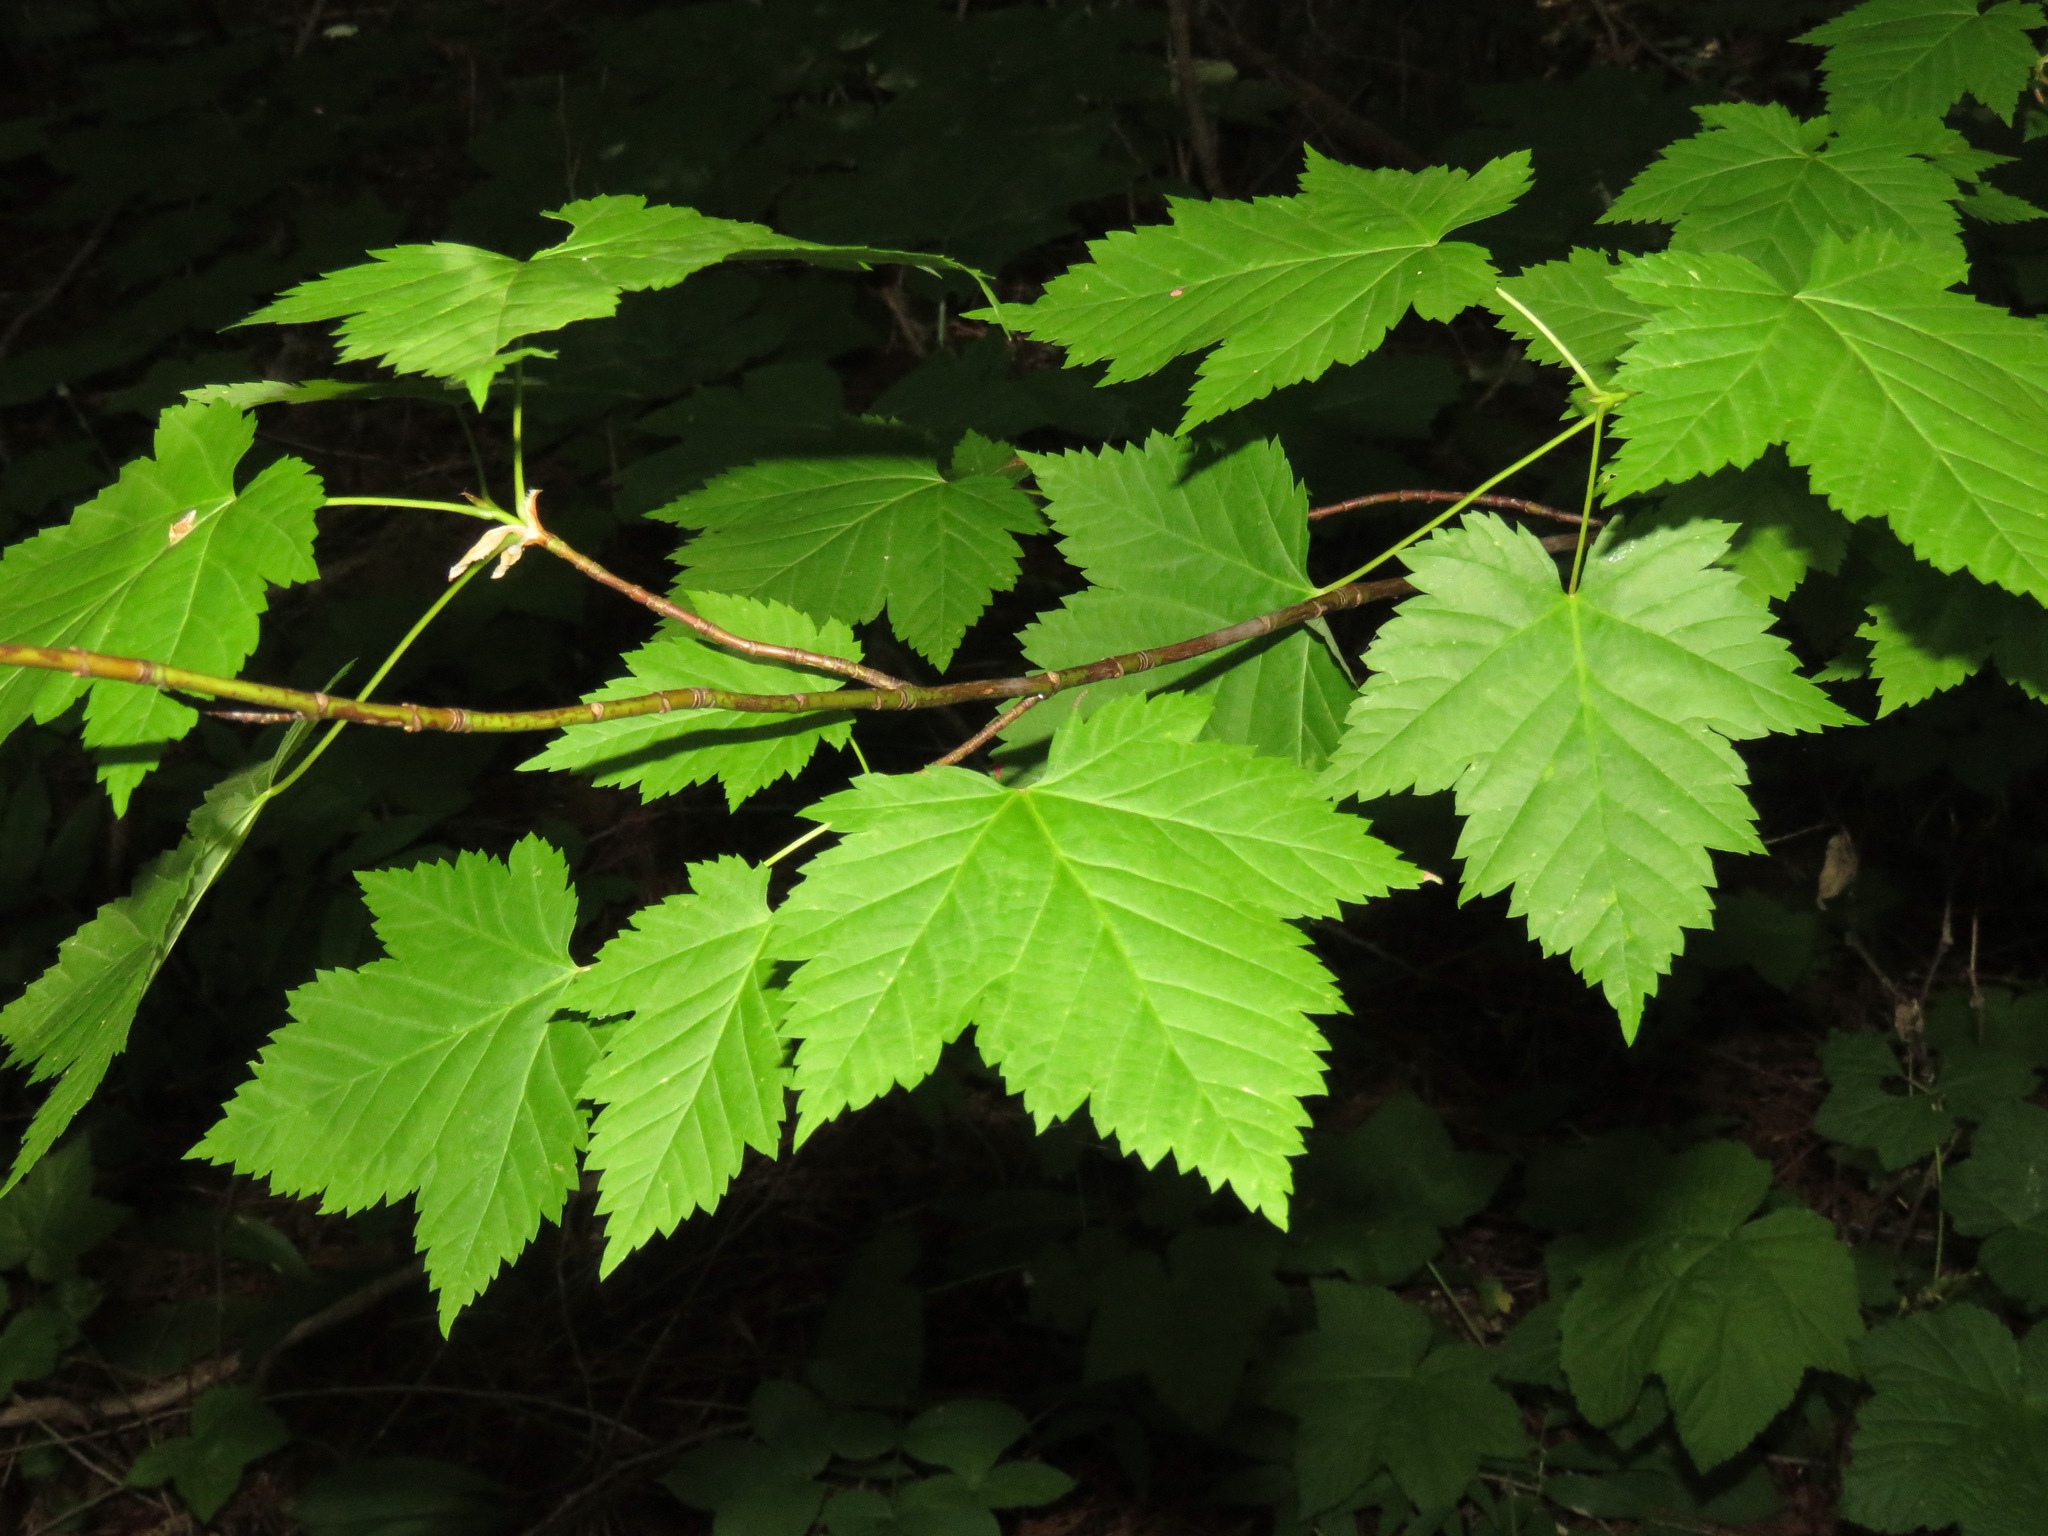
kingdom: Plantae
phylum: Tracheophyta
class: Magnoliopsida
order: Sapindales
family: Sapindaceae
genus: Acer
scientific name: Acer glabrum
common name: Rocky mountain maple
